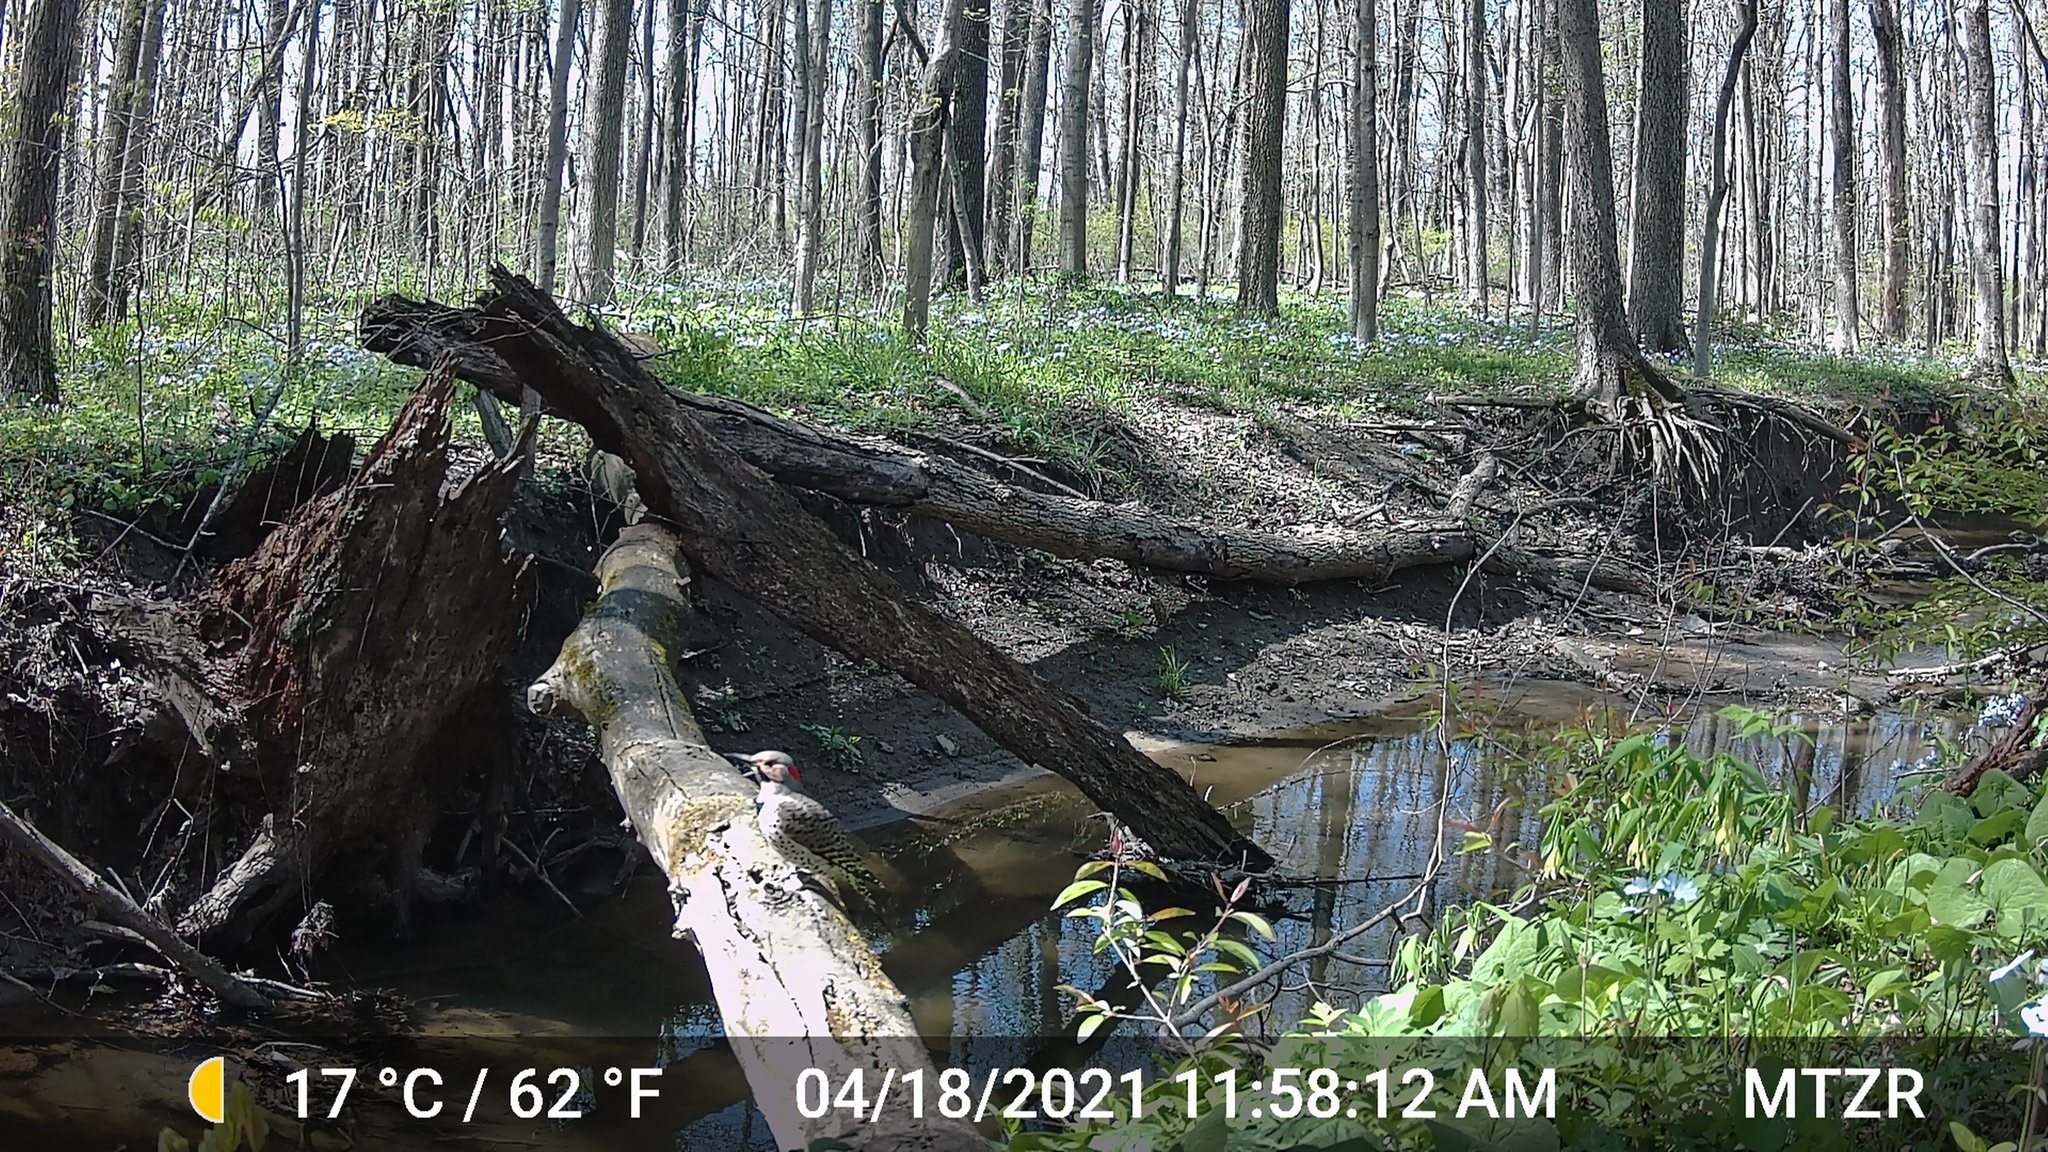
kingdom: Animalia
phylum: Chordata
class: Aves
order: Piciformes
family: Picidae
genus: Colaptes
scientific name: Colaptes auratus
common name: Northern flicker
